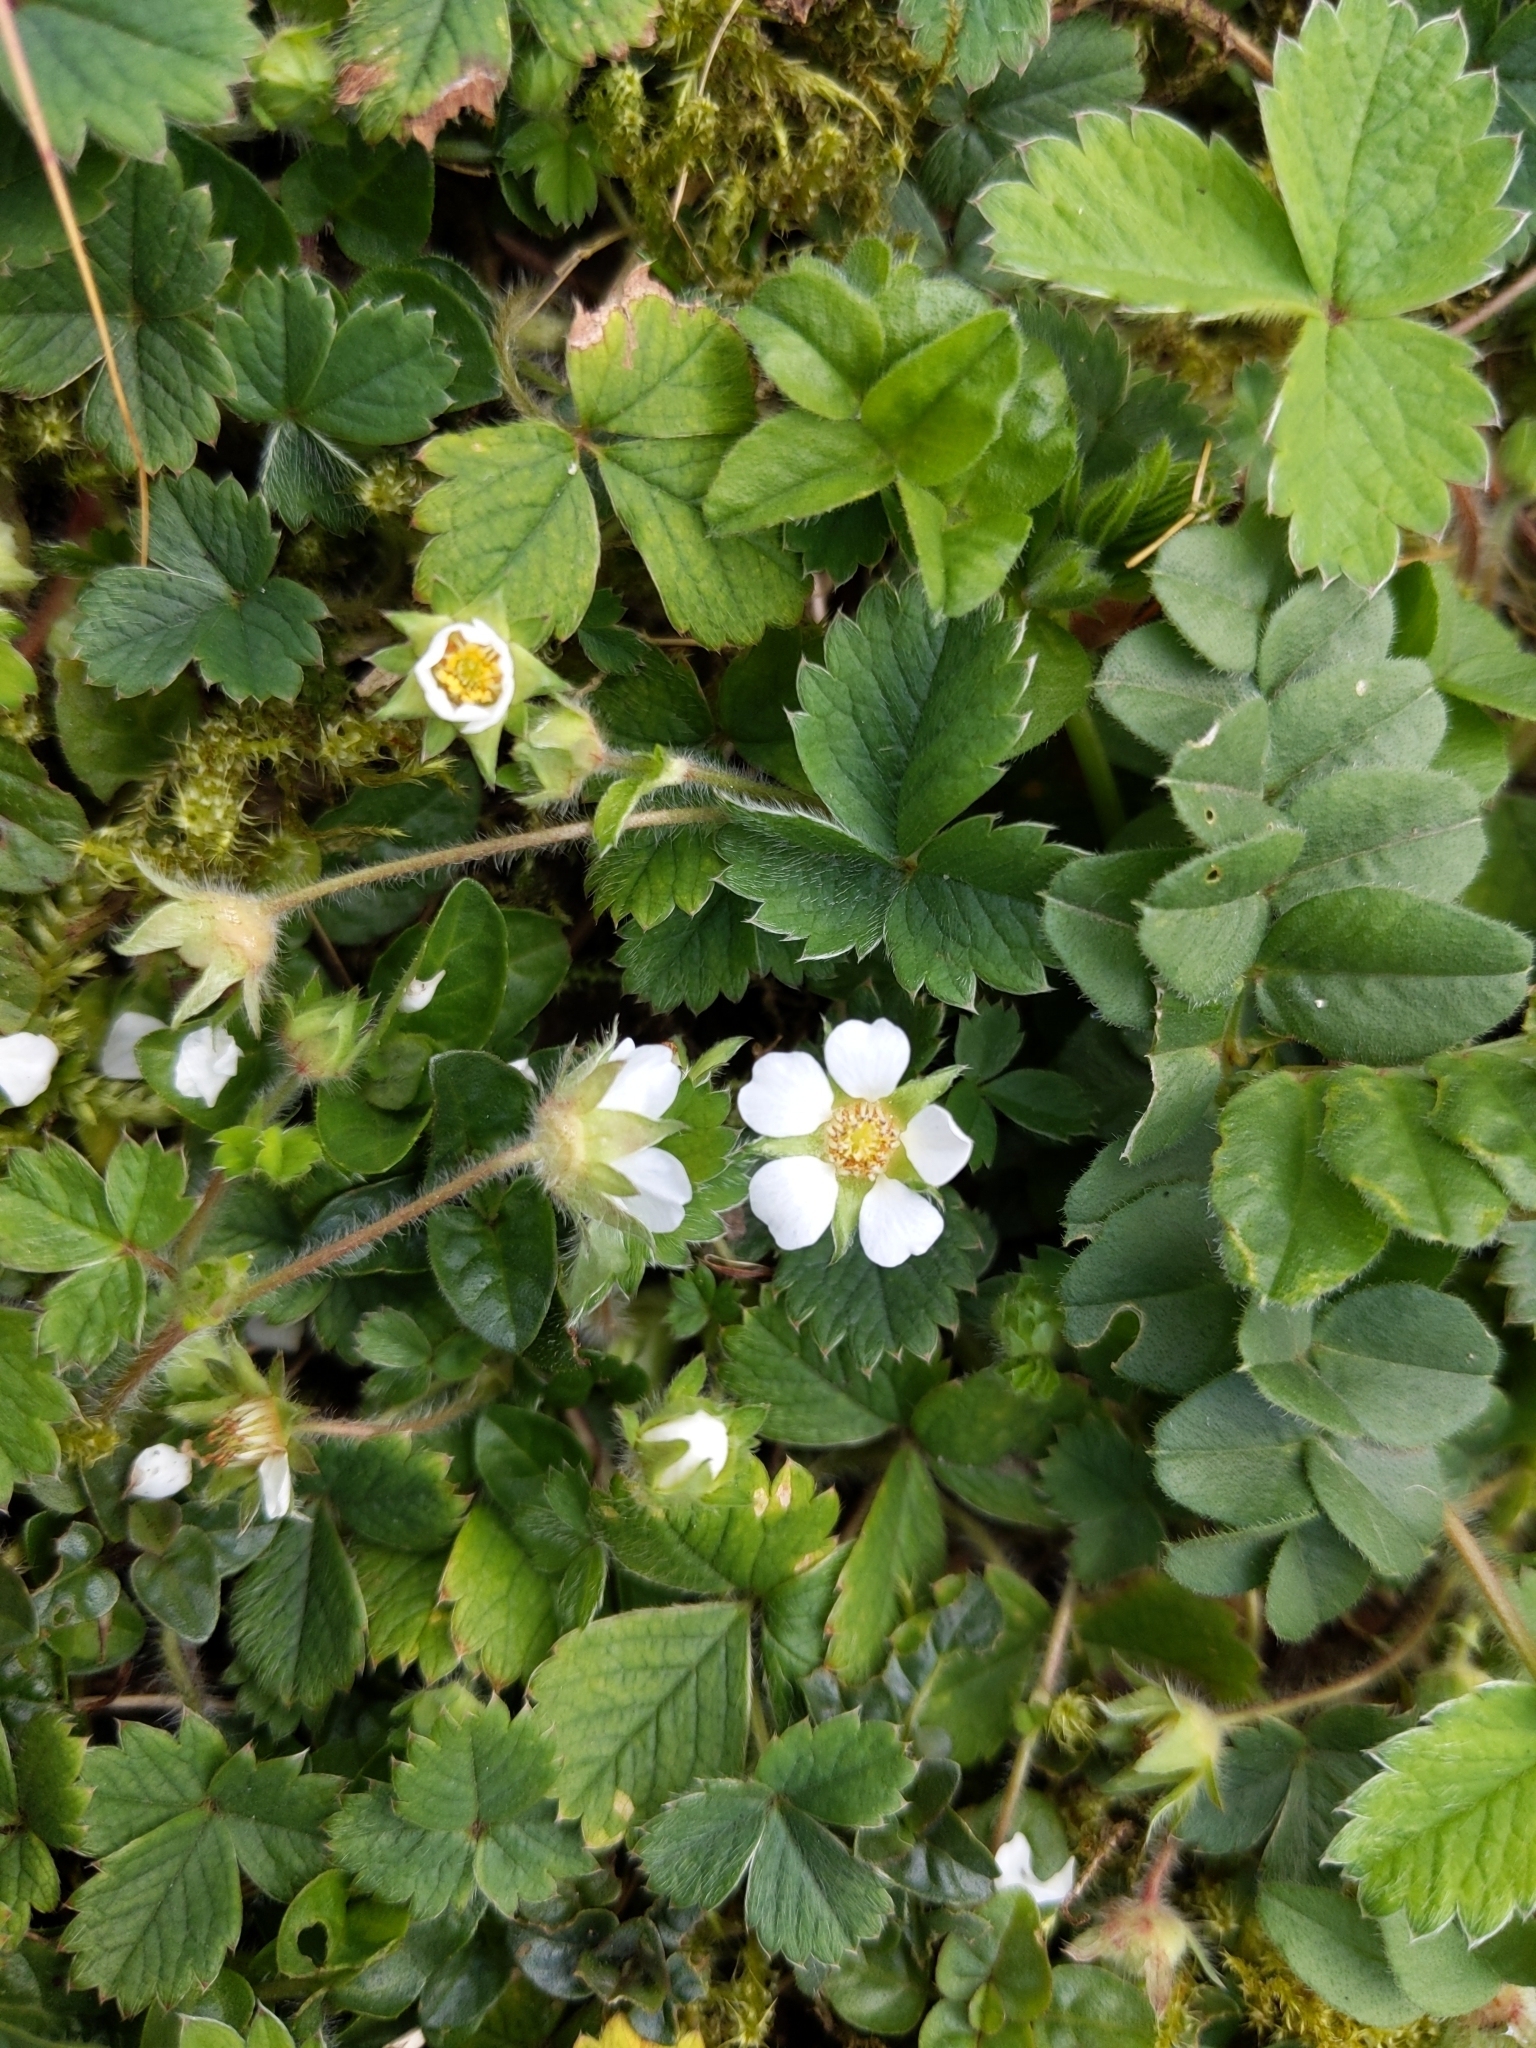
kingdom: Plantae
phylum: Tracheophyta
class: Magnoliopsida
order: Rosales
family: Rosaceae
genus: Potentilla
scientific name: Potentilla sterilis
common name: Barren strawberry
